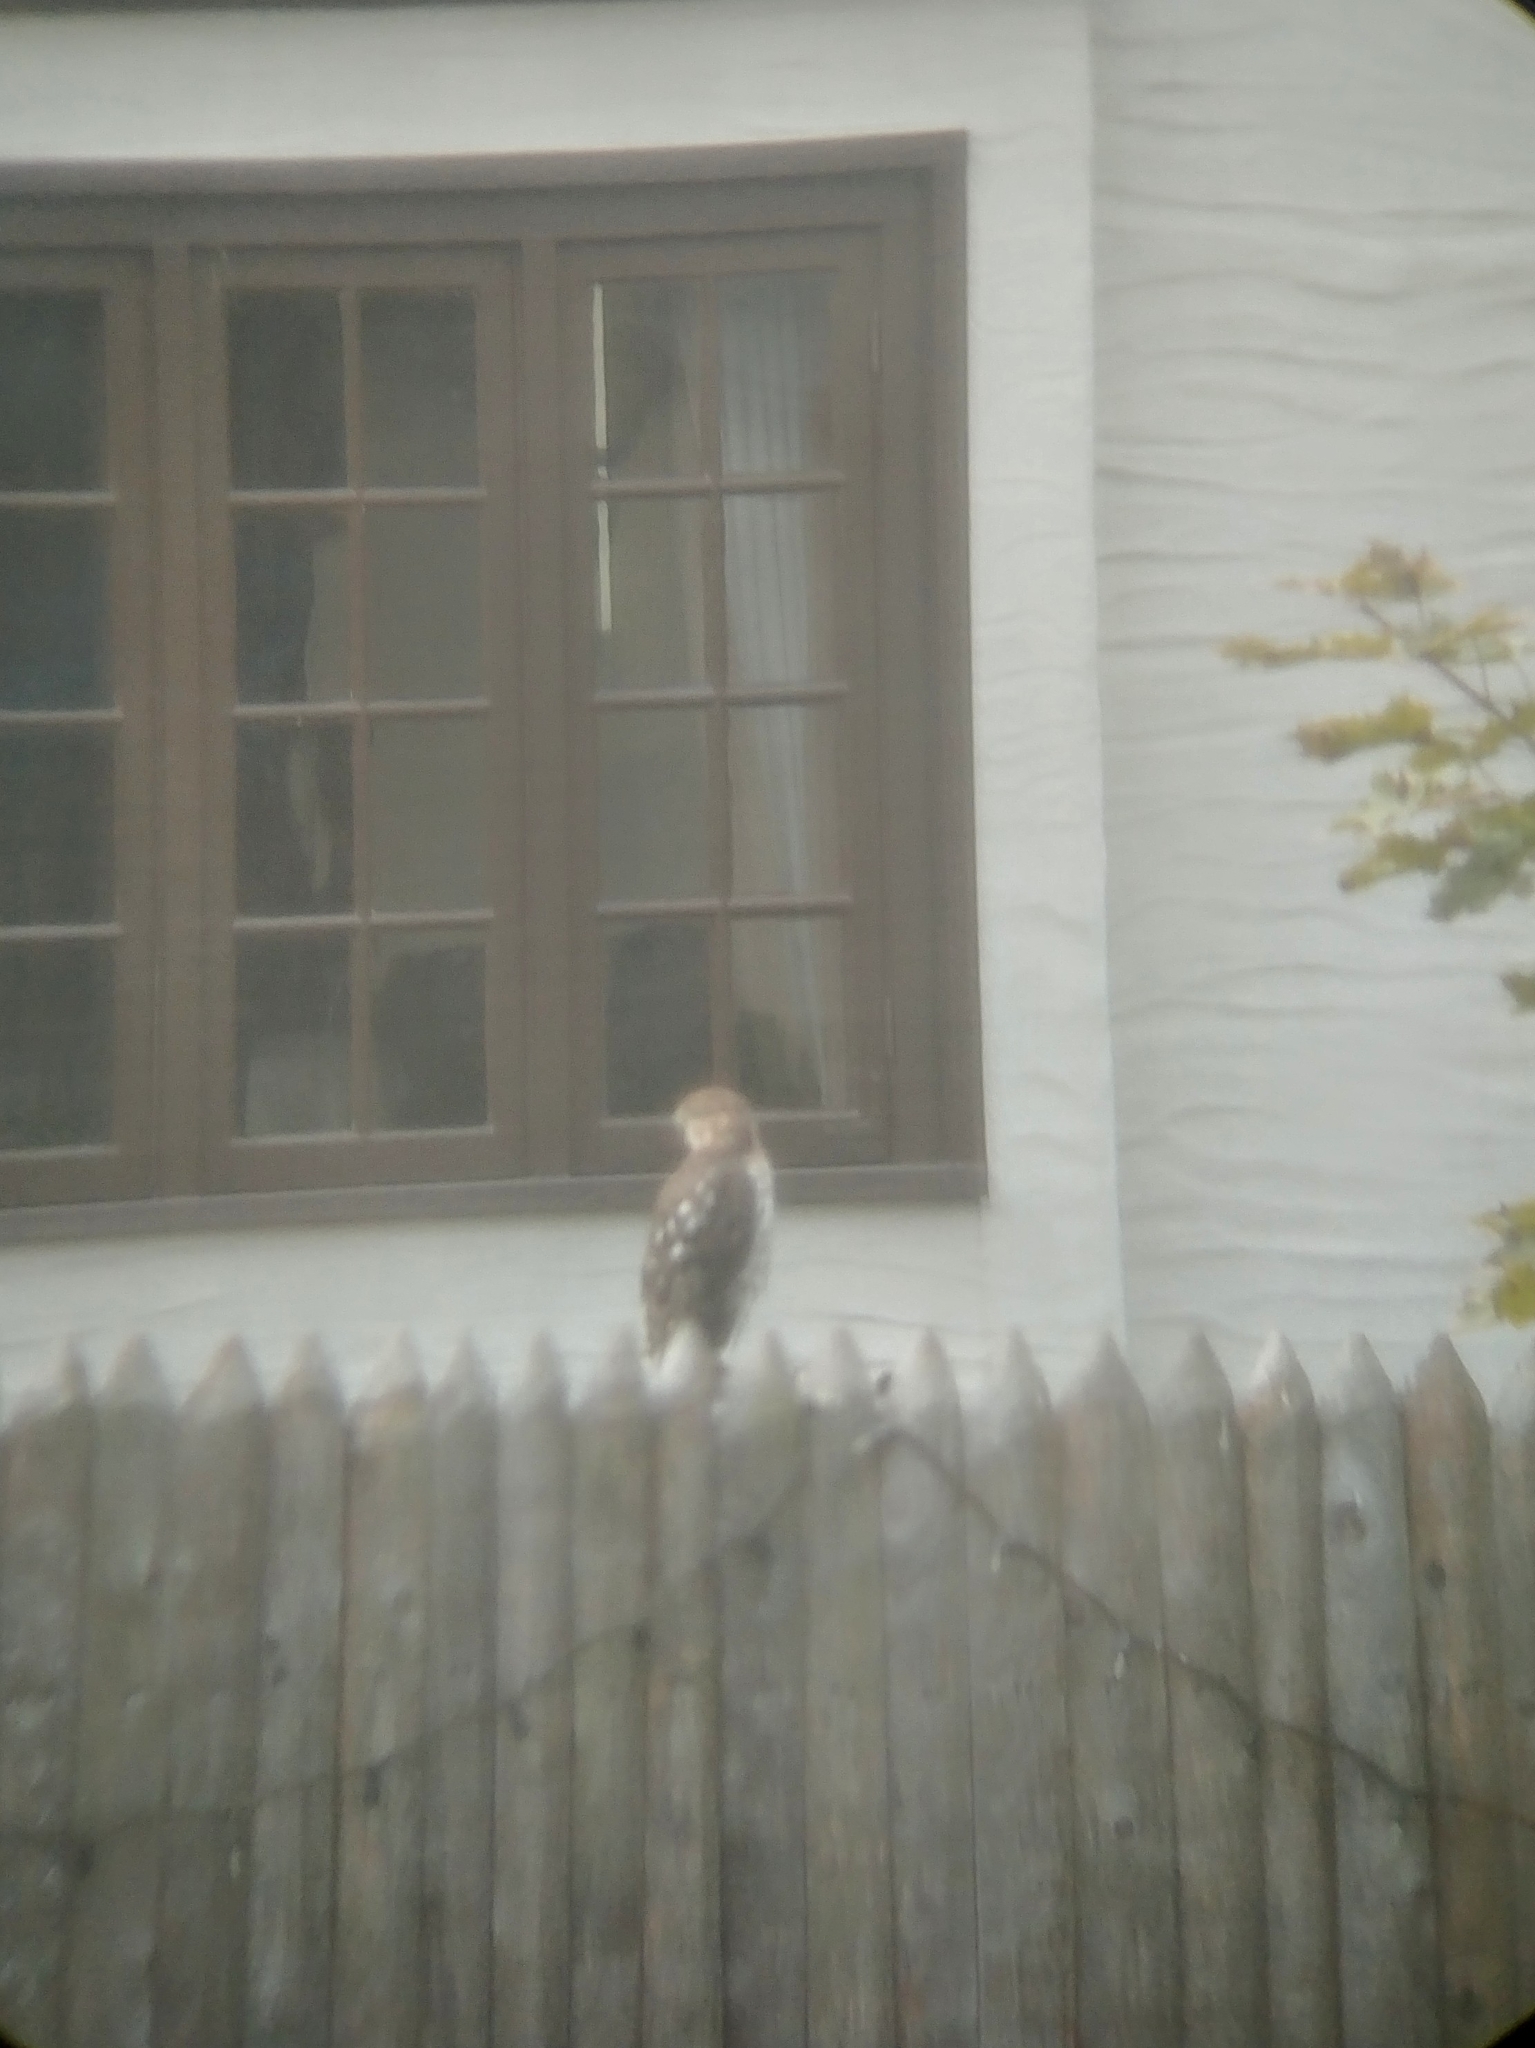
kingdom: Animalia
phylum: Chordata
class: Aves
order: Accipitriformes
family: Accipitridae
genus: Accipiter
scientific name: Accipiter cooperii
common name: Cooper's hawk
